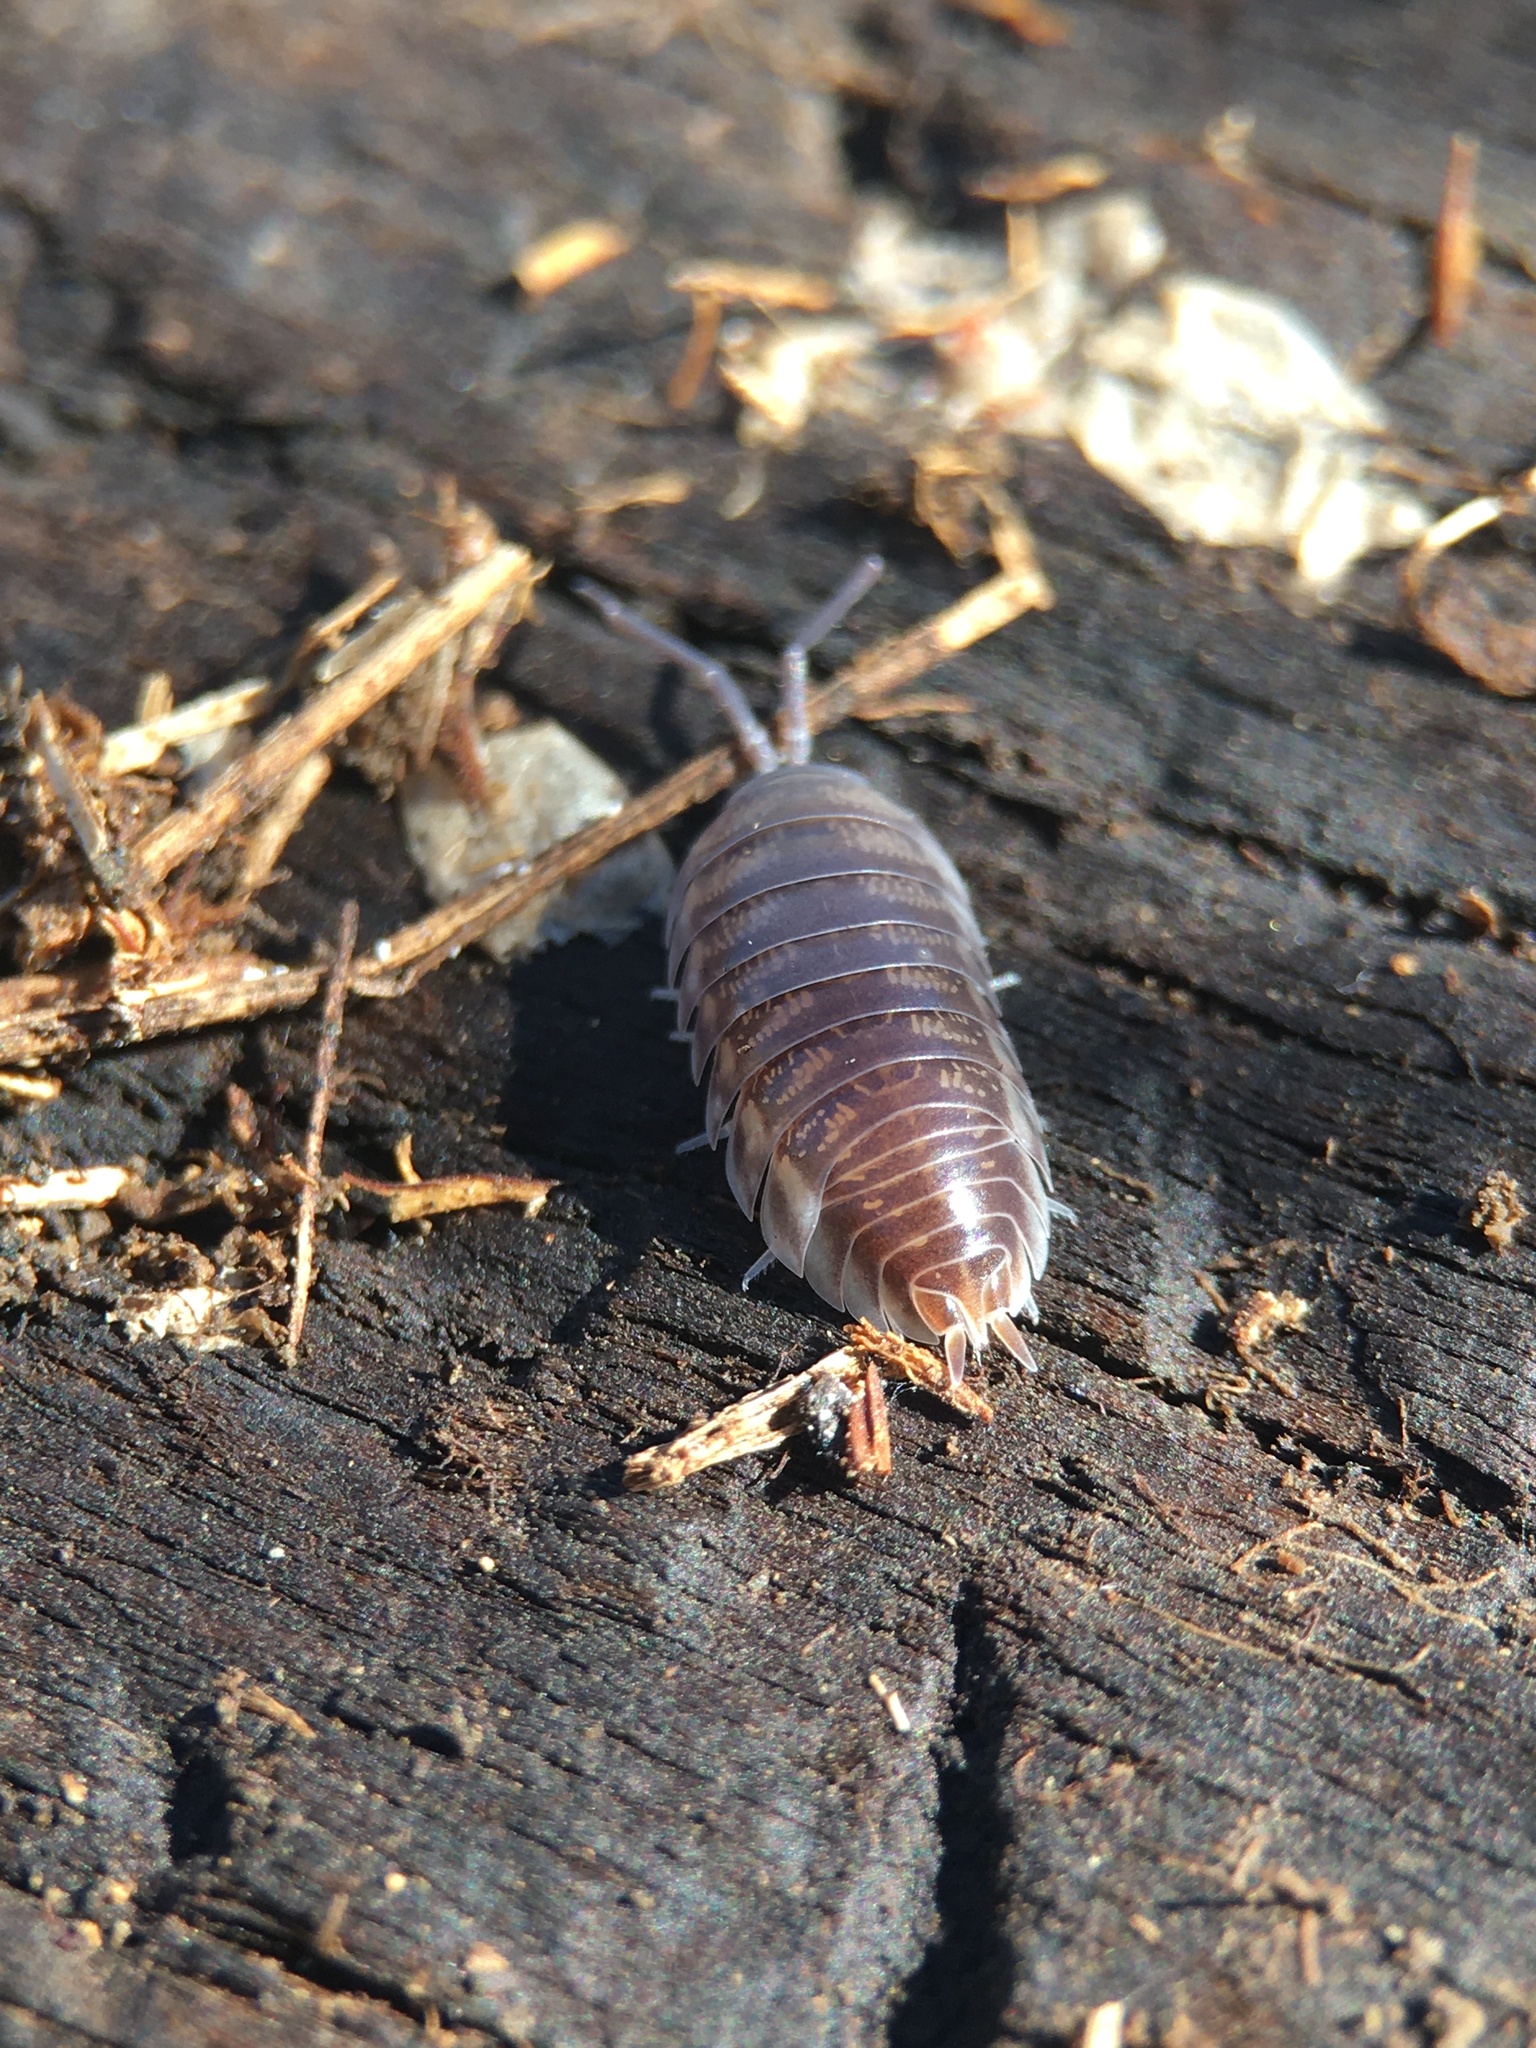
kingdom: Animalia
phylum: Arthropoda
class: Malacostraca
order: Isopoda
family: Cylisticidae
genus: Cylisticus
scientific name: Cylisticus convexus
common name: Curly woodlouse
